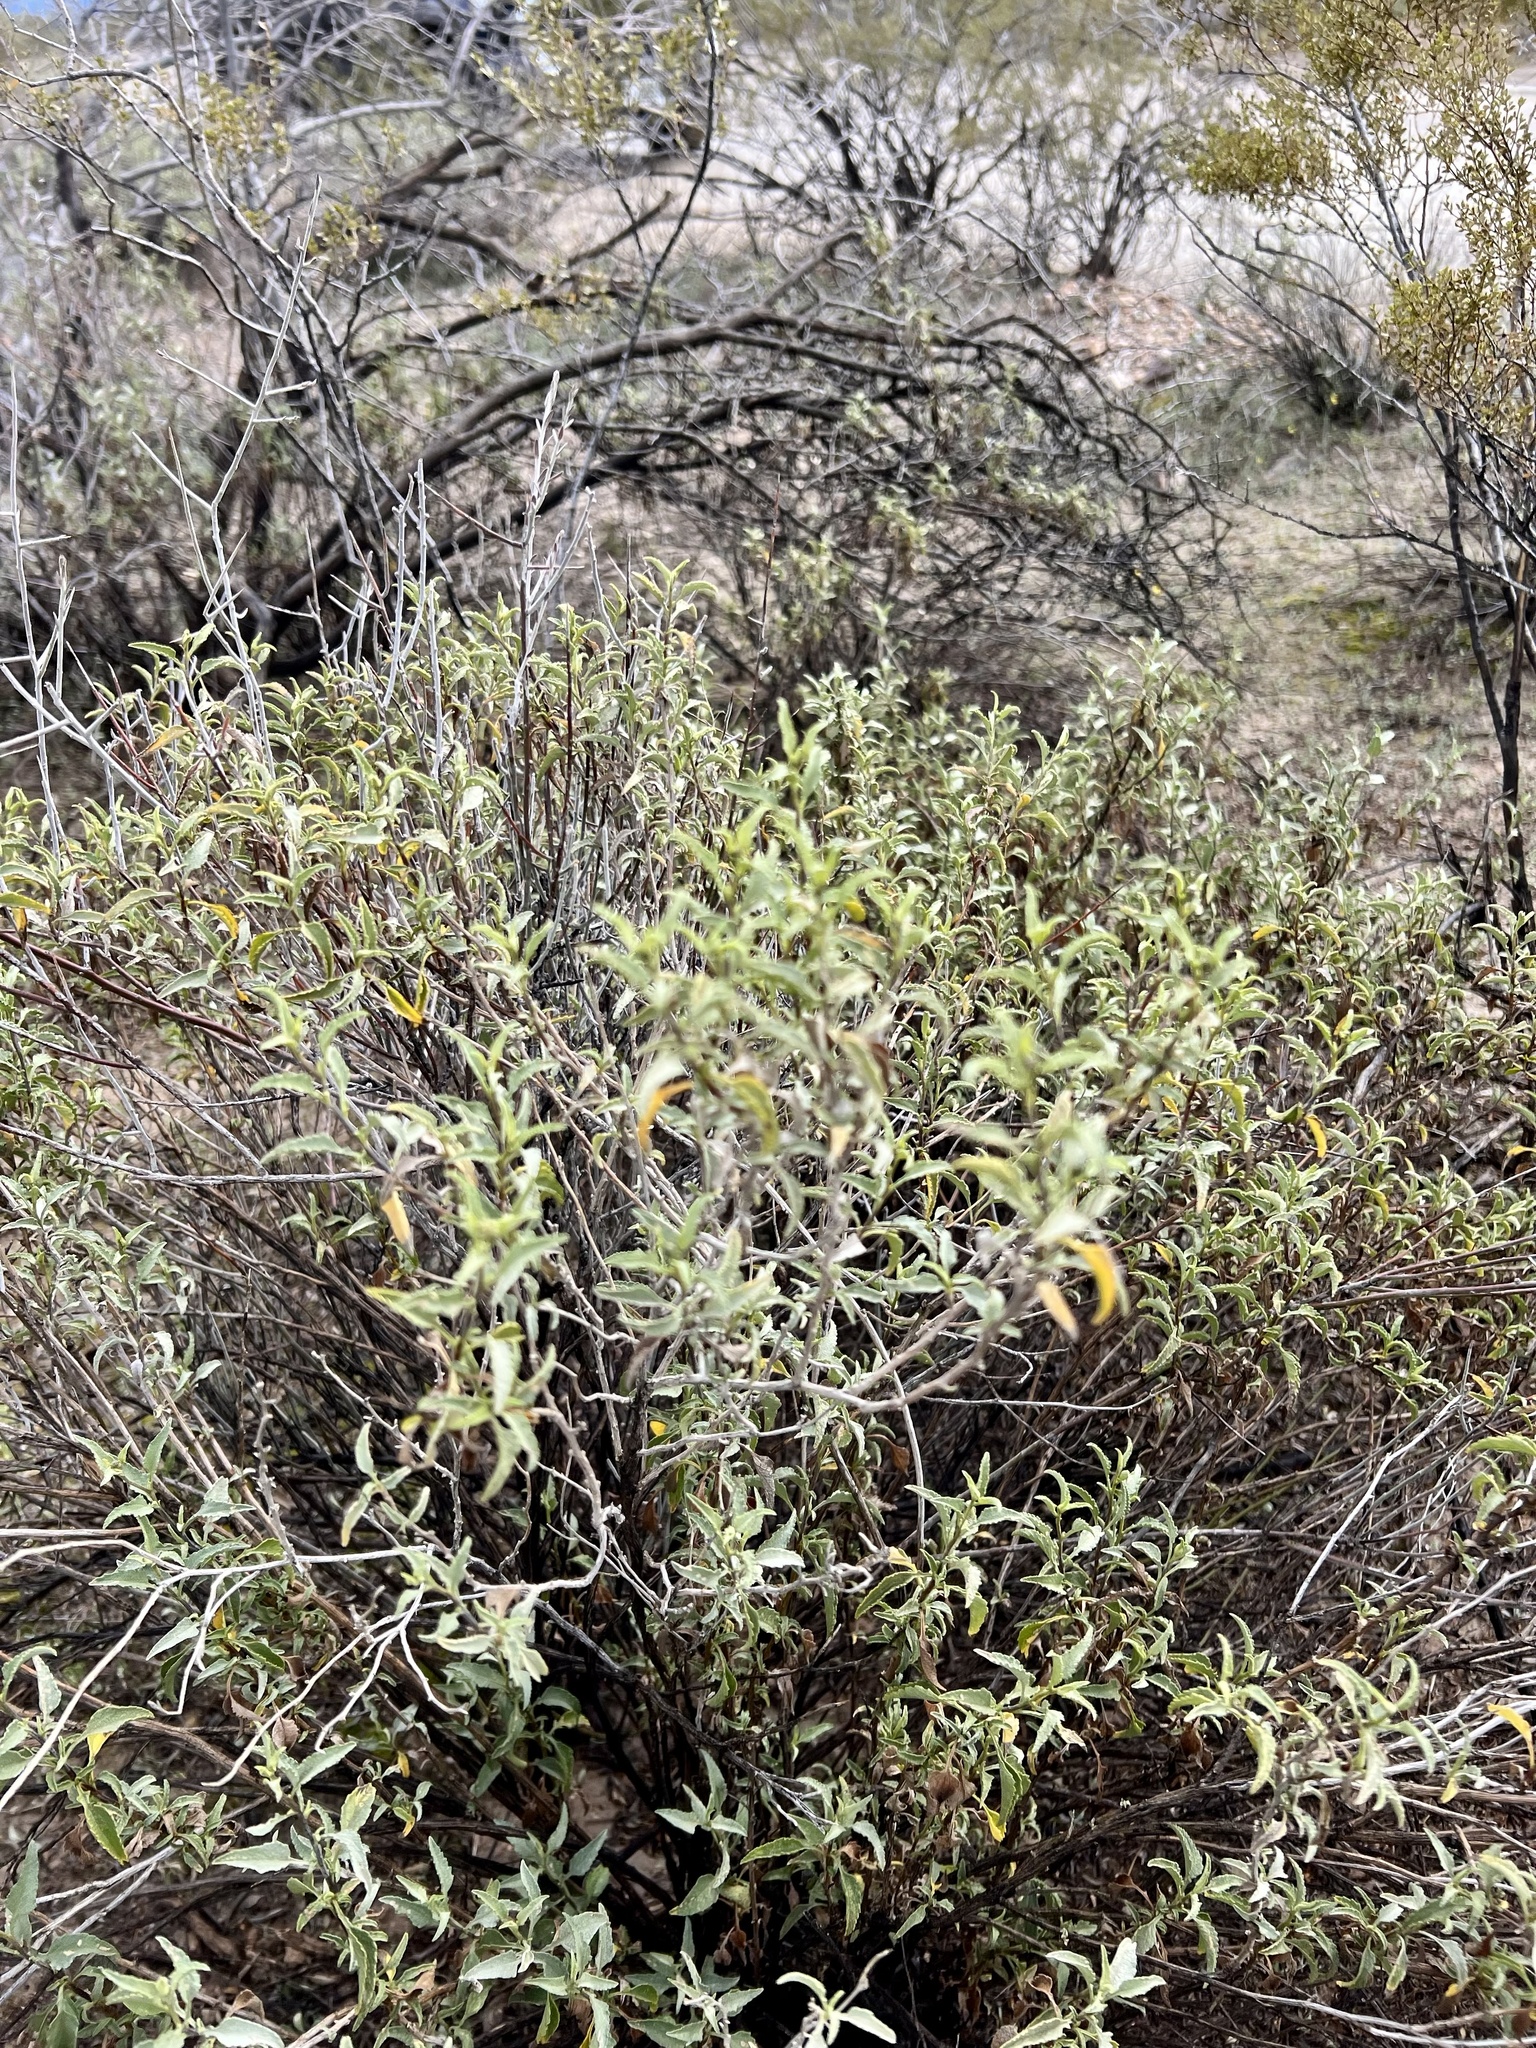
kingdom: Plantae
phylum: Tracheophyta
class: Magnoliopsida
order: Asterales
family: Asteraceae
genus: Ambrosia
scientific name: Ambrosia deltoidea
